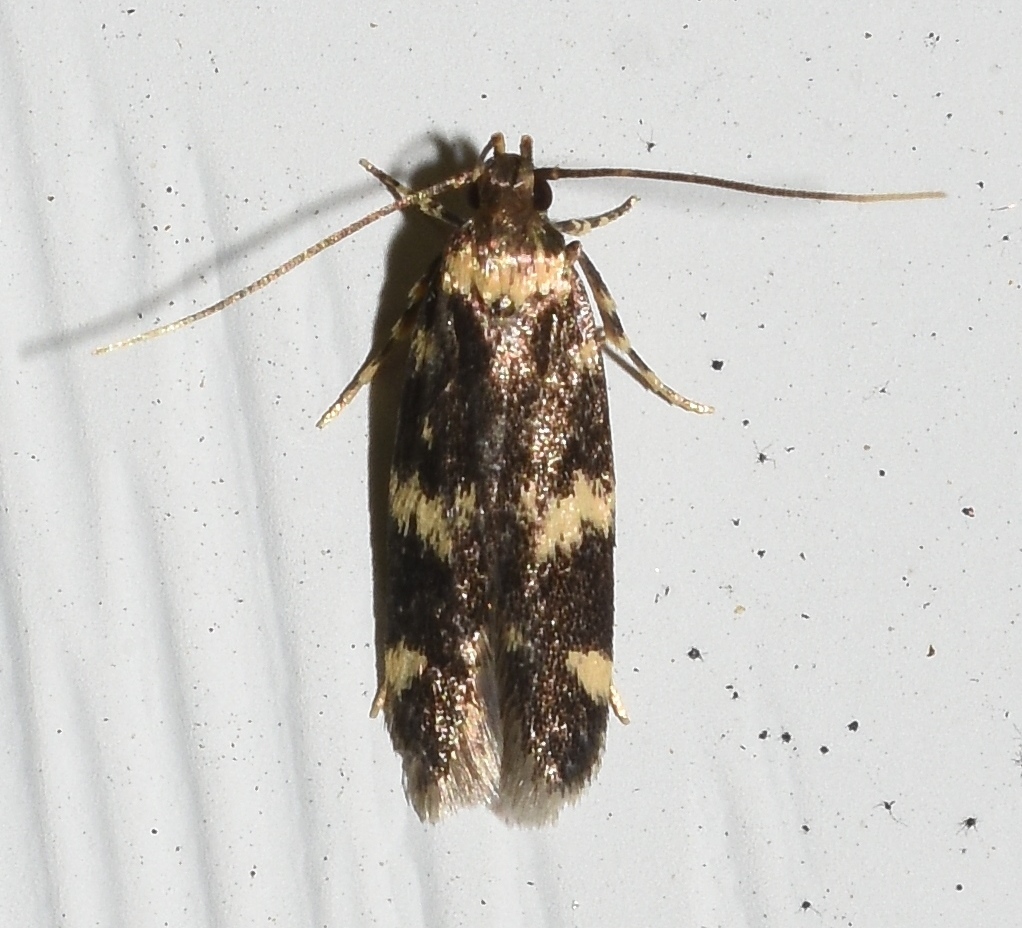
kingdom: Animalia
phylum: Arthropoda
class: Insecta
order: Lepidoptera
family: Autostichidae
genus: Oegoconia
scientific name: Oegoconia quadripuncta
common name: Four-spotted obscure
